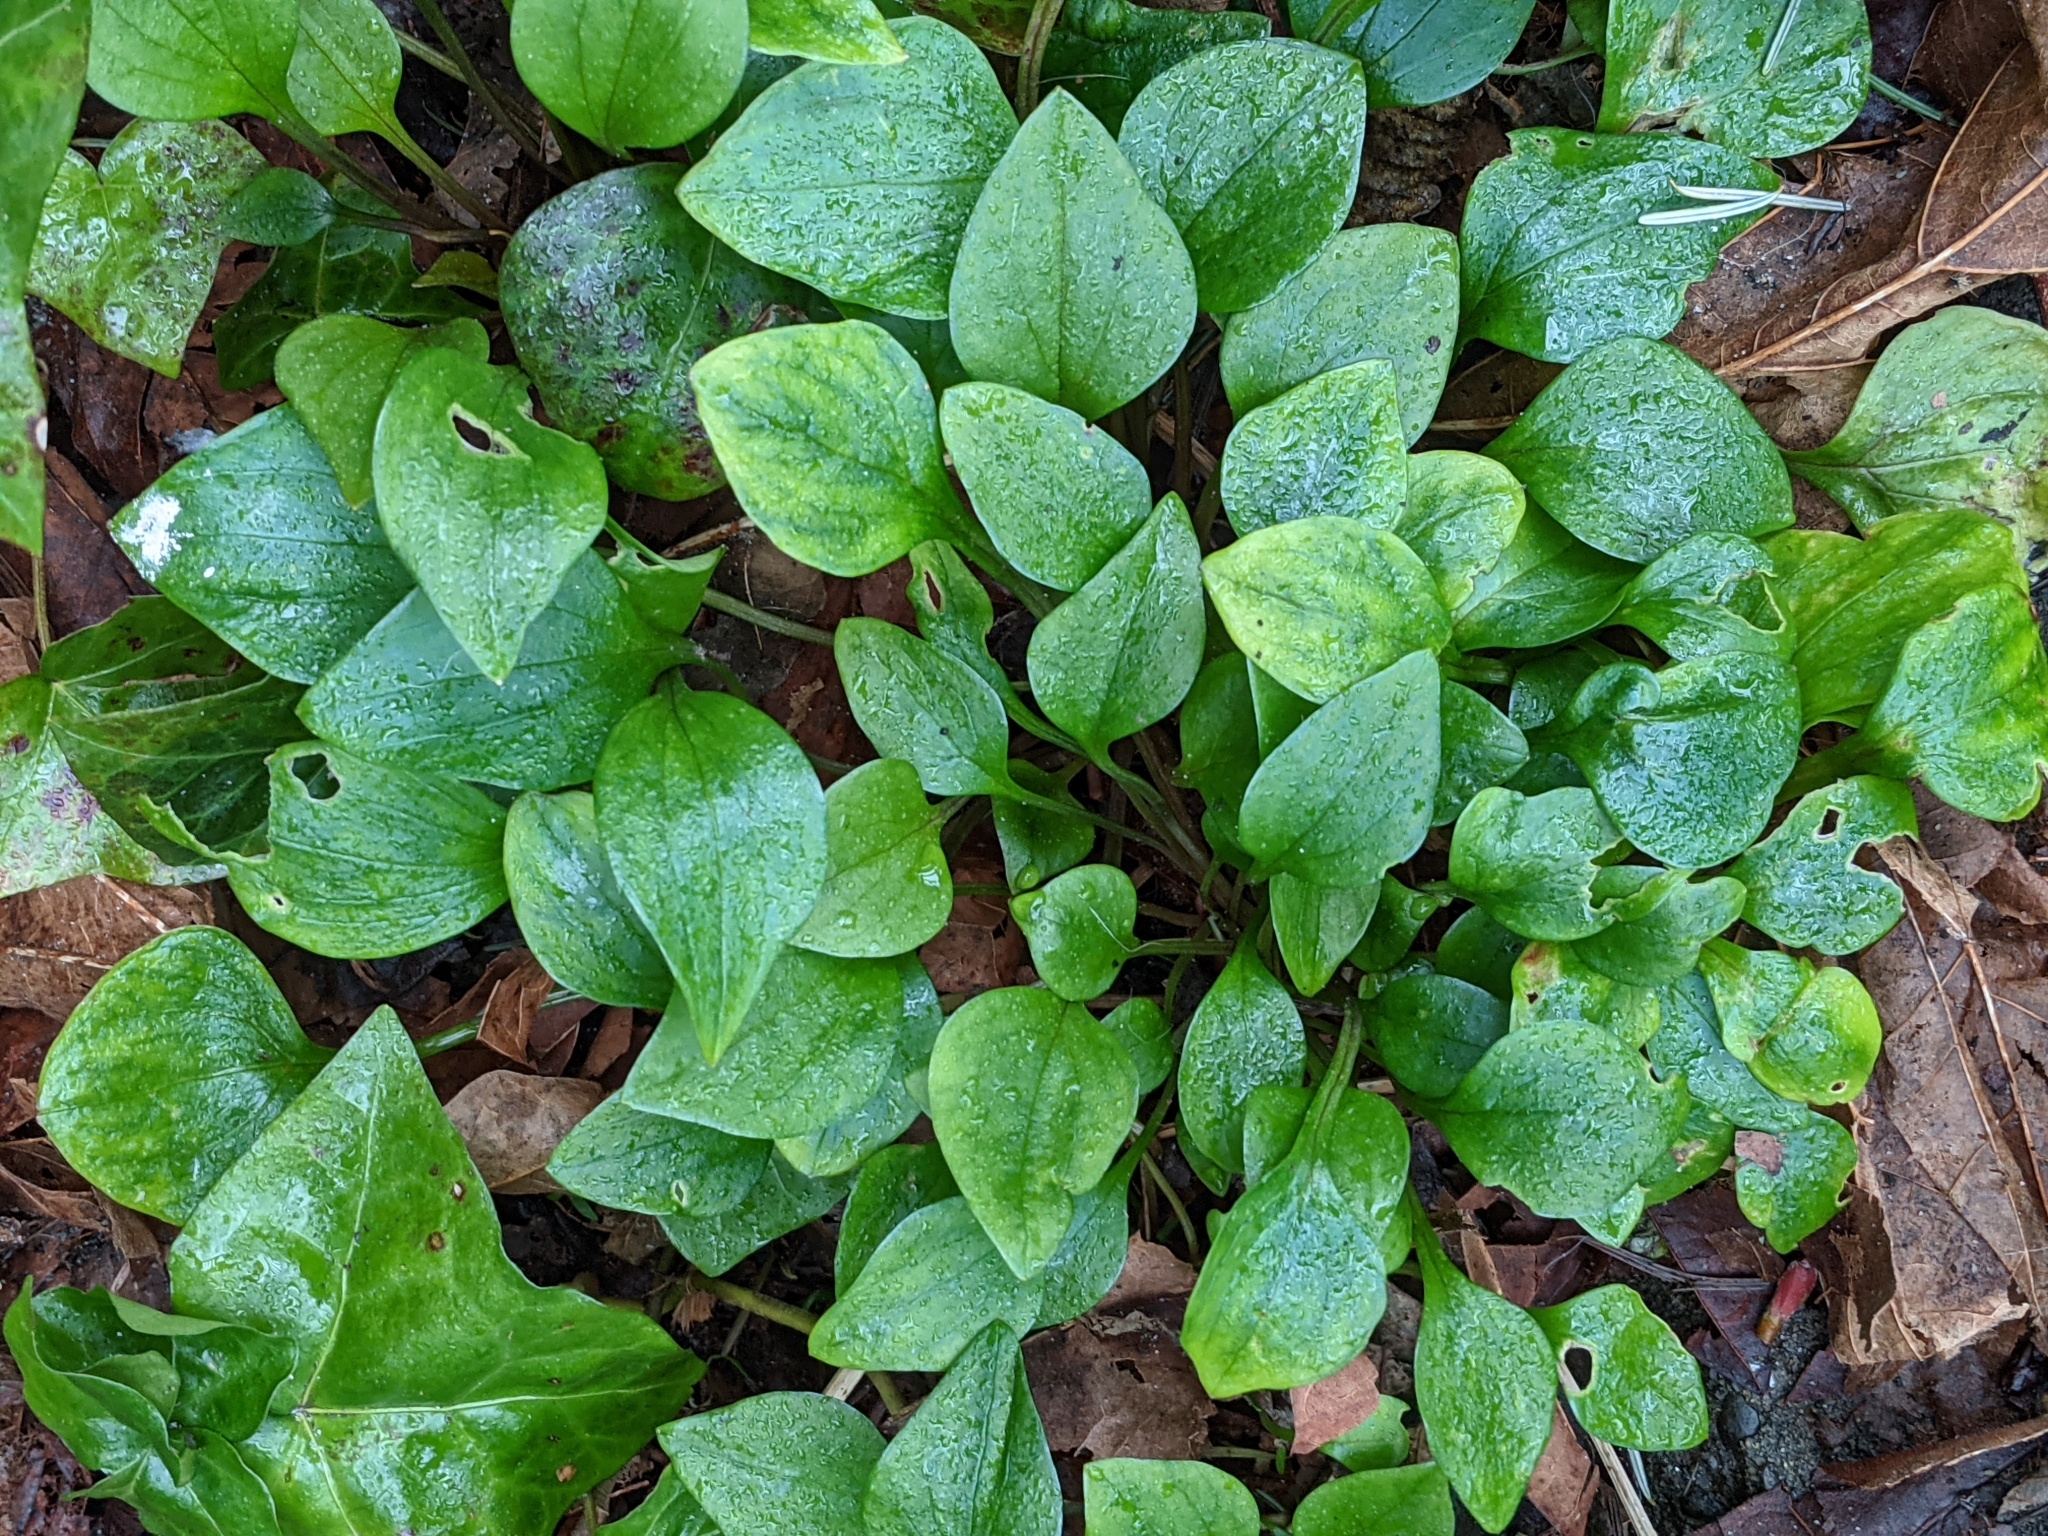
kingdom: Plantae
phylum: Tracheophyta
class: Magnoliopsida
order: Caryophyllales
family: Montiaceae
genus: Claytonia
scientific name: Claytonia sibirica
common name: Pink purslane
